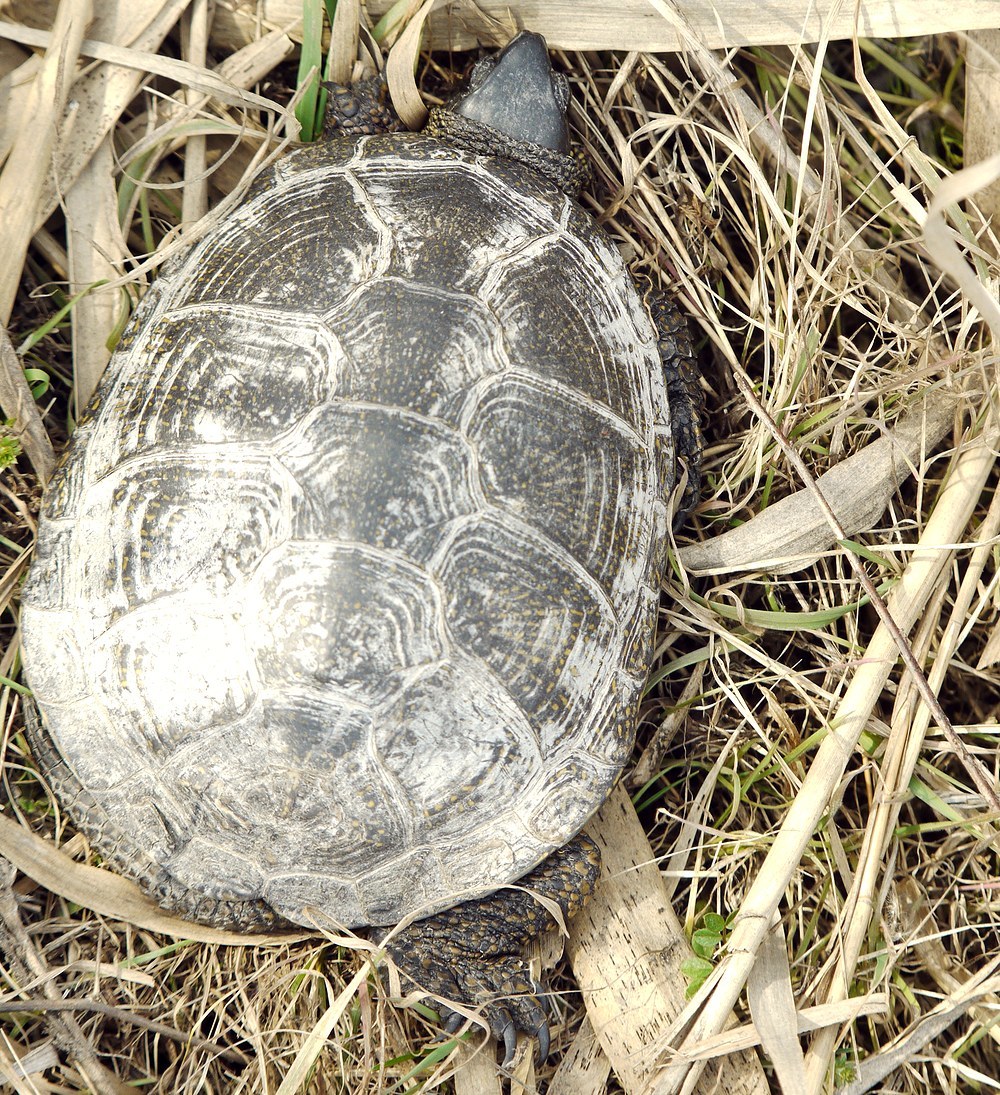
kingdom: Animalia
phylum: Chordata
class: Testudines
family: Emydidae
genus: Emys
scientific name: Emys orbicularis
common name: European pond turtle
